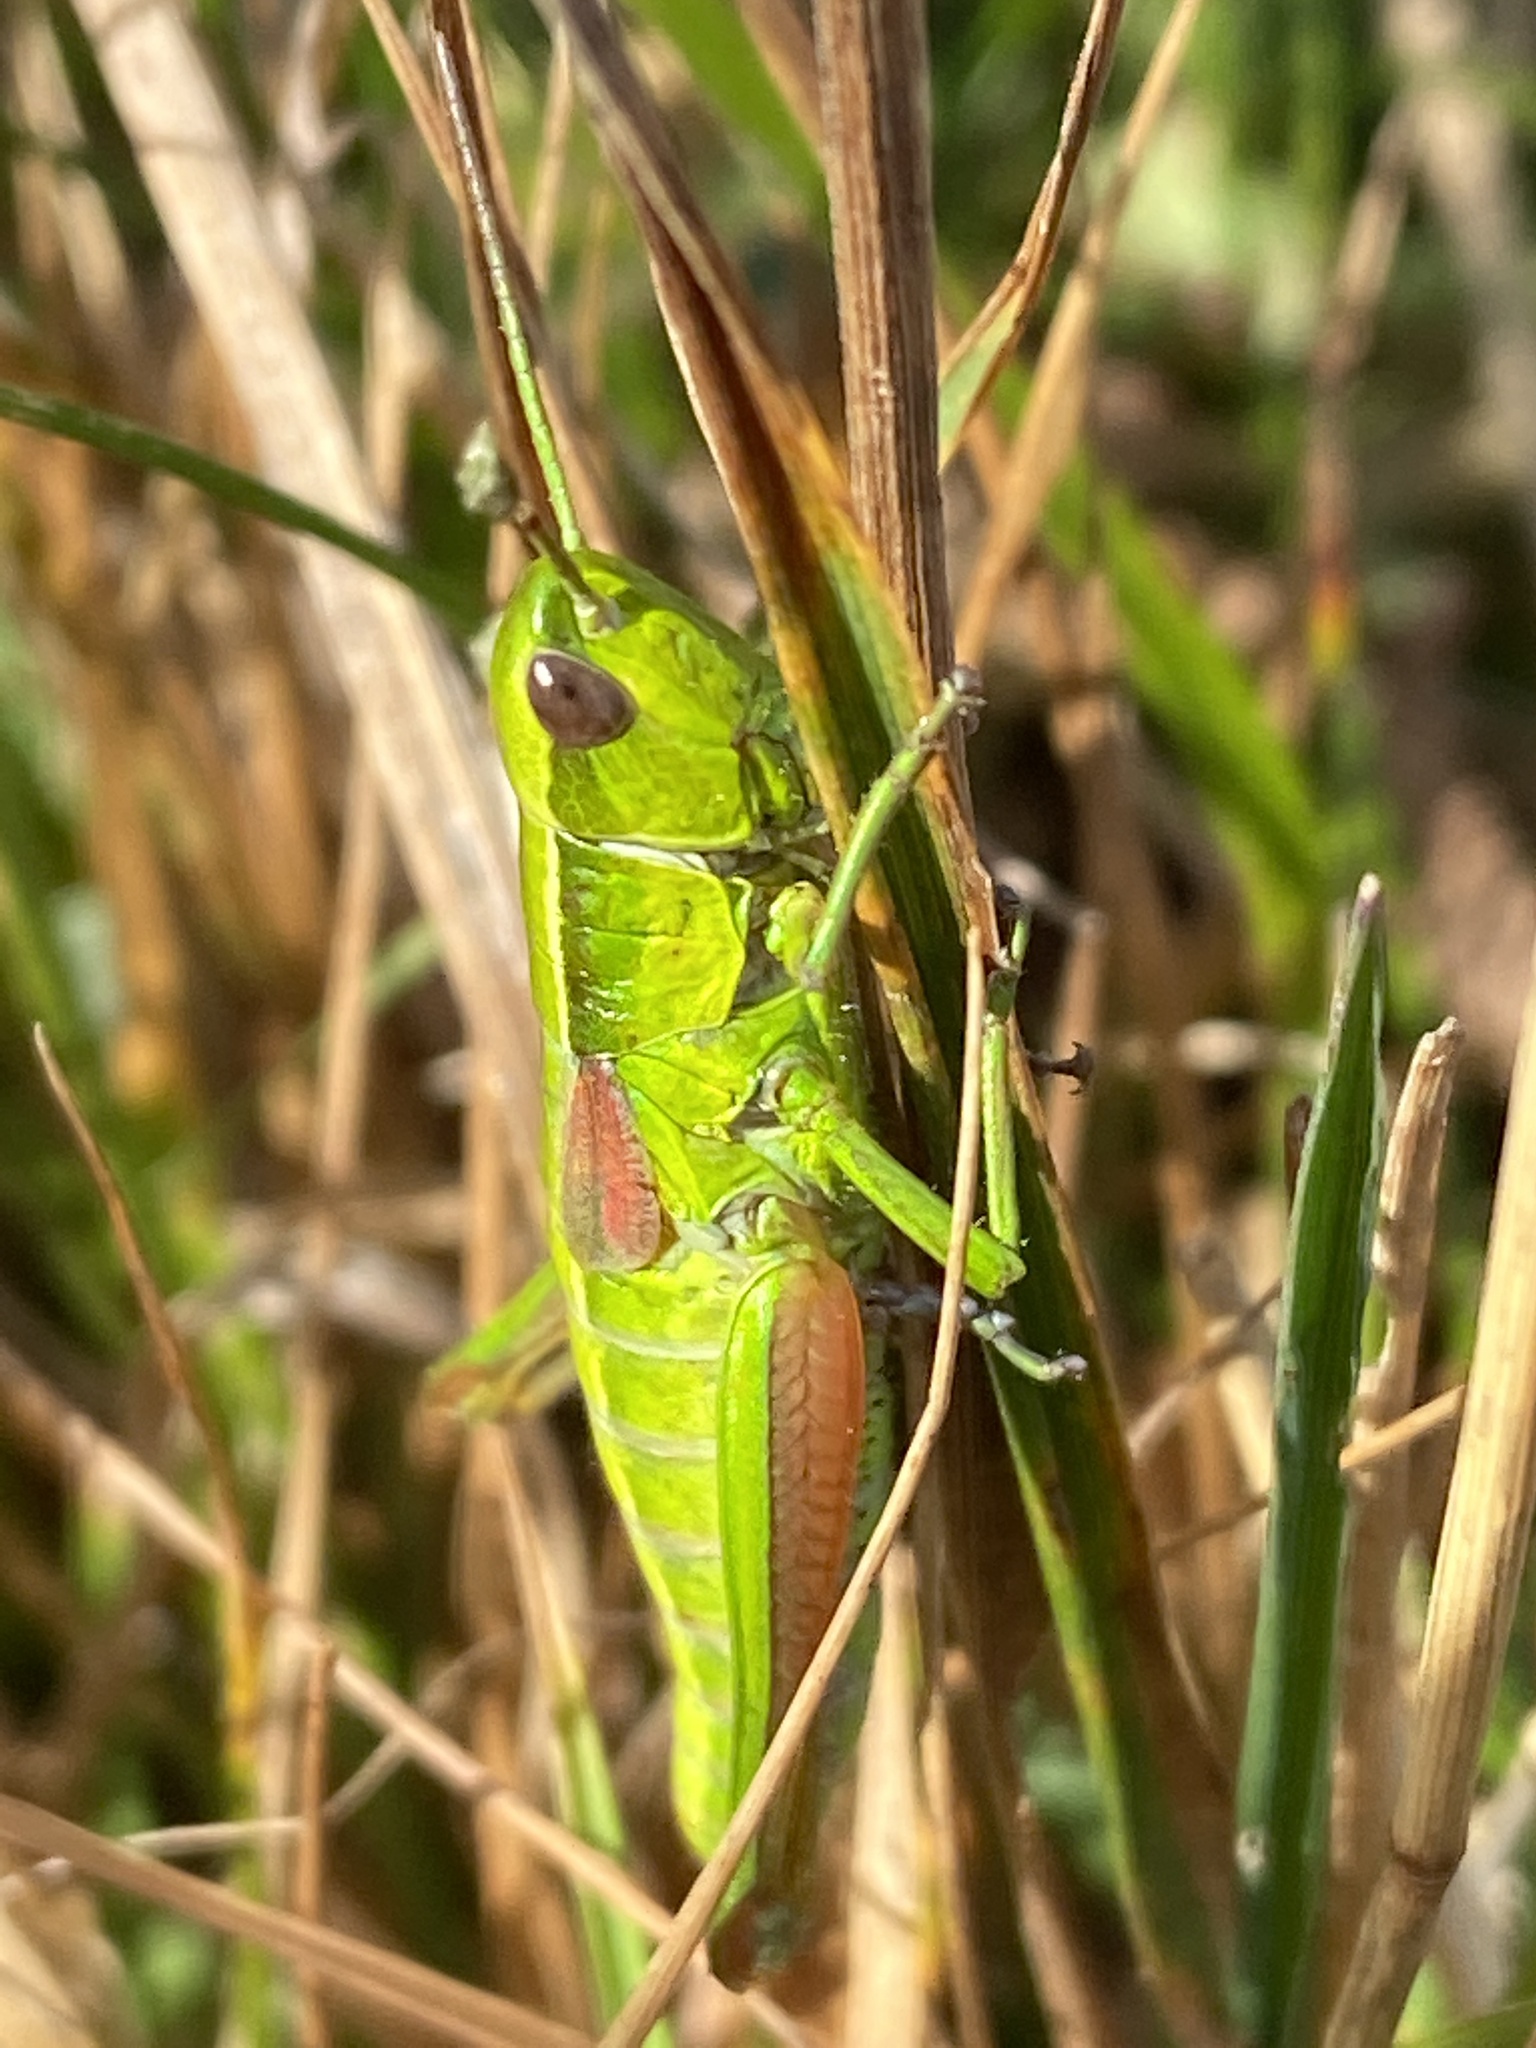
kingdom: Animalia
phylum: Arthropoda
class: Insecta
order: Orthoptera
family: Acrididae
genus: Euthystira
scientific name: Euthystira brachyptera
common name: Small gold grasshopper
